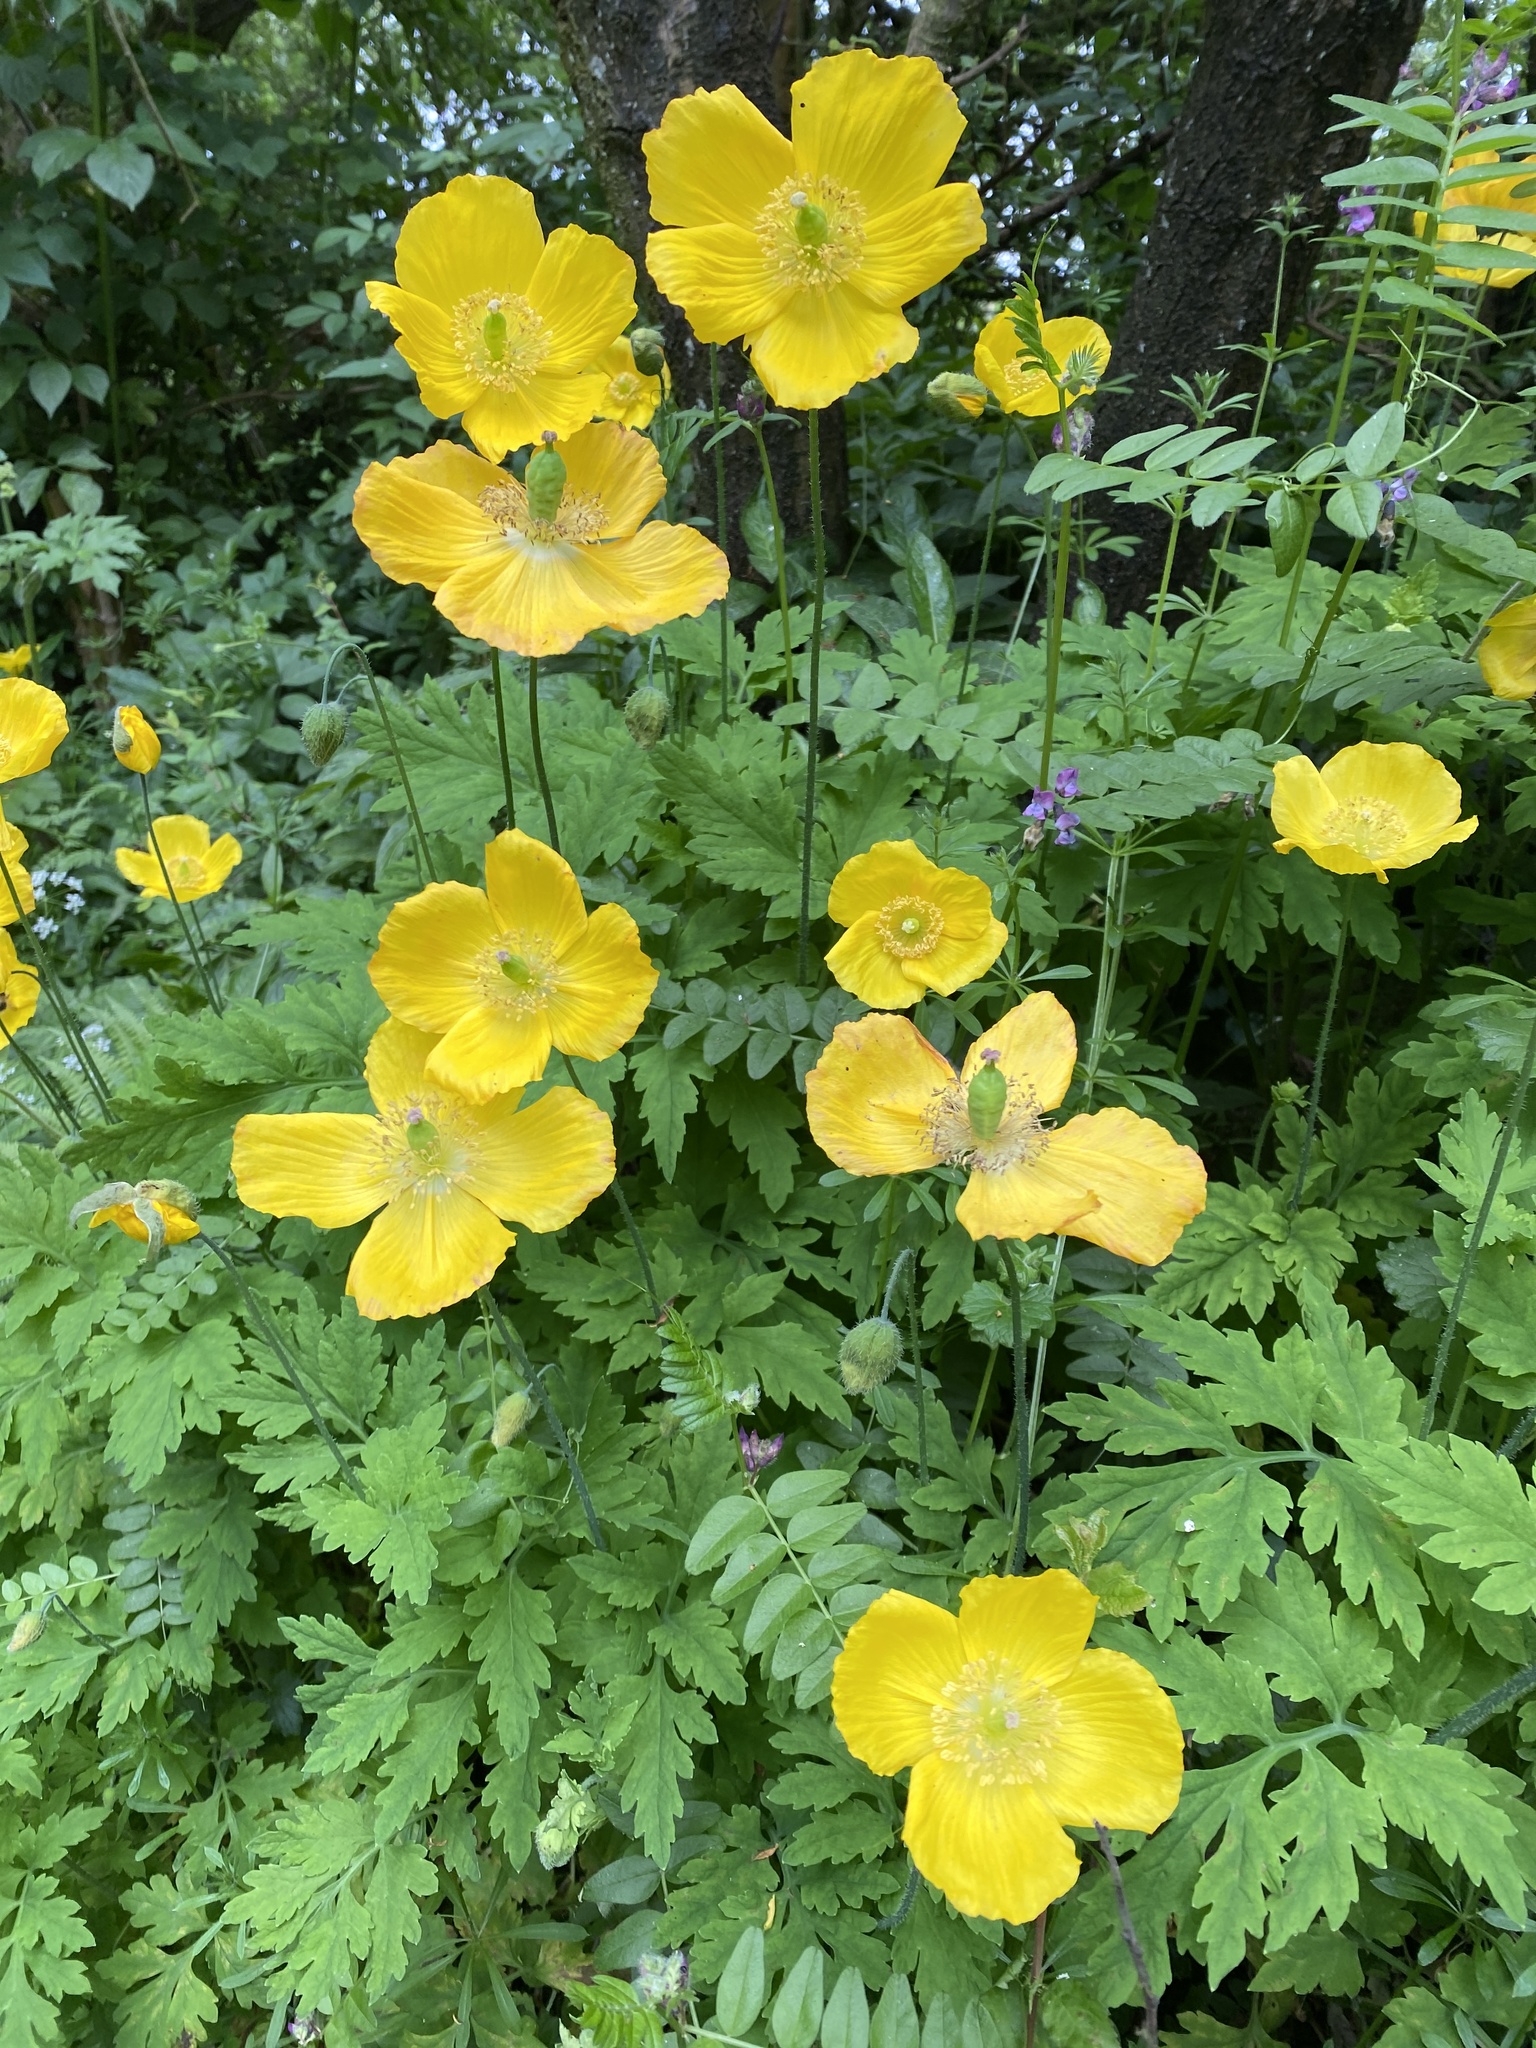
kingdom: Plantae
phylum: Tracheophyta
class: Magnoliopsida
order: Ranunculales
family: Papaveraceae
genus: Papaver
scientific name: Papaver cambricum
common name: Poppy
